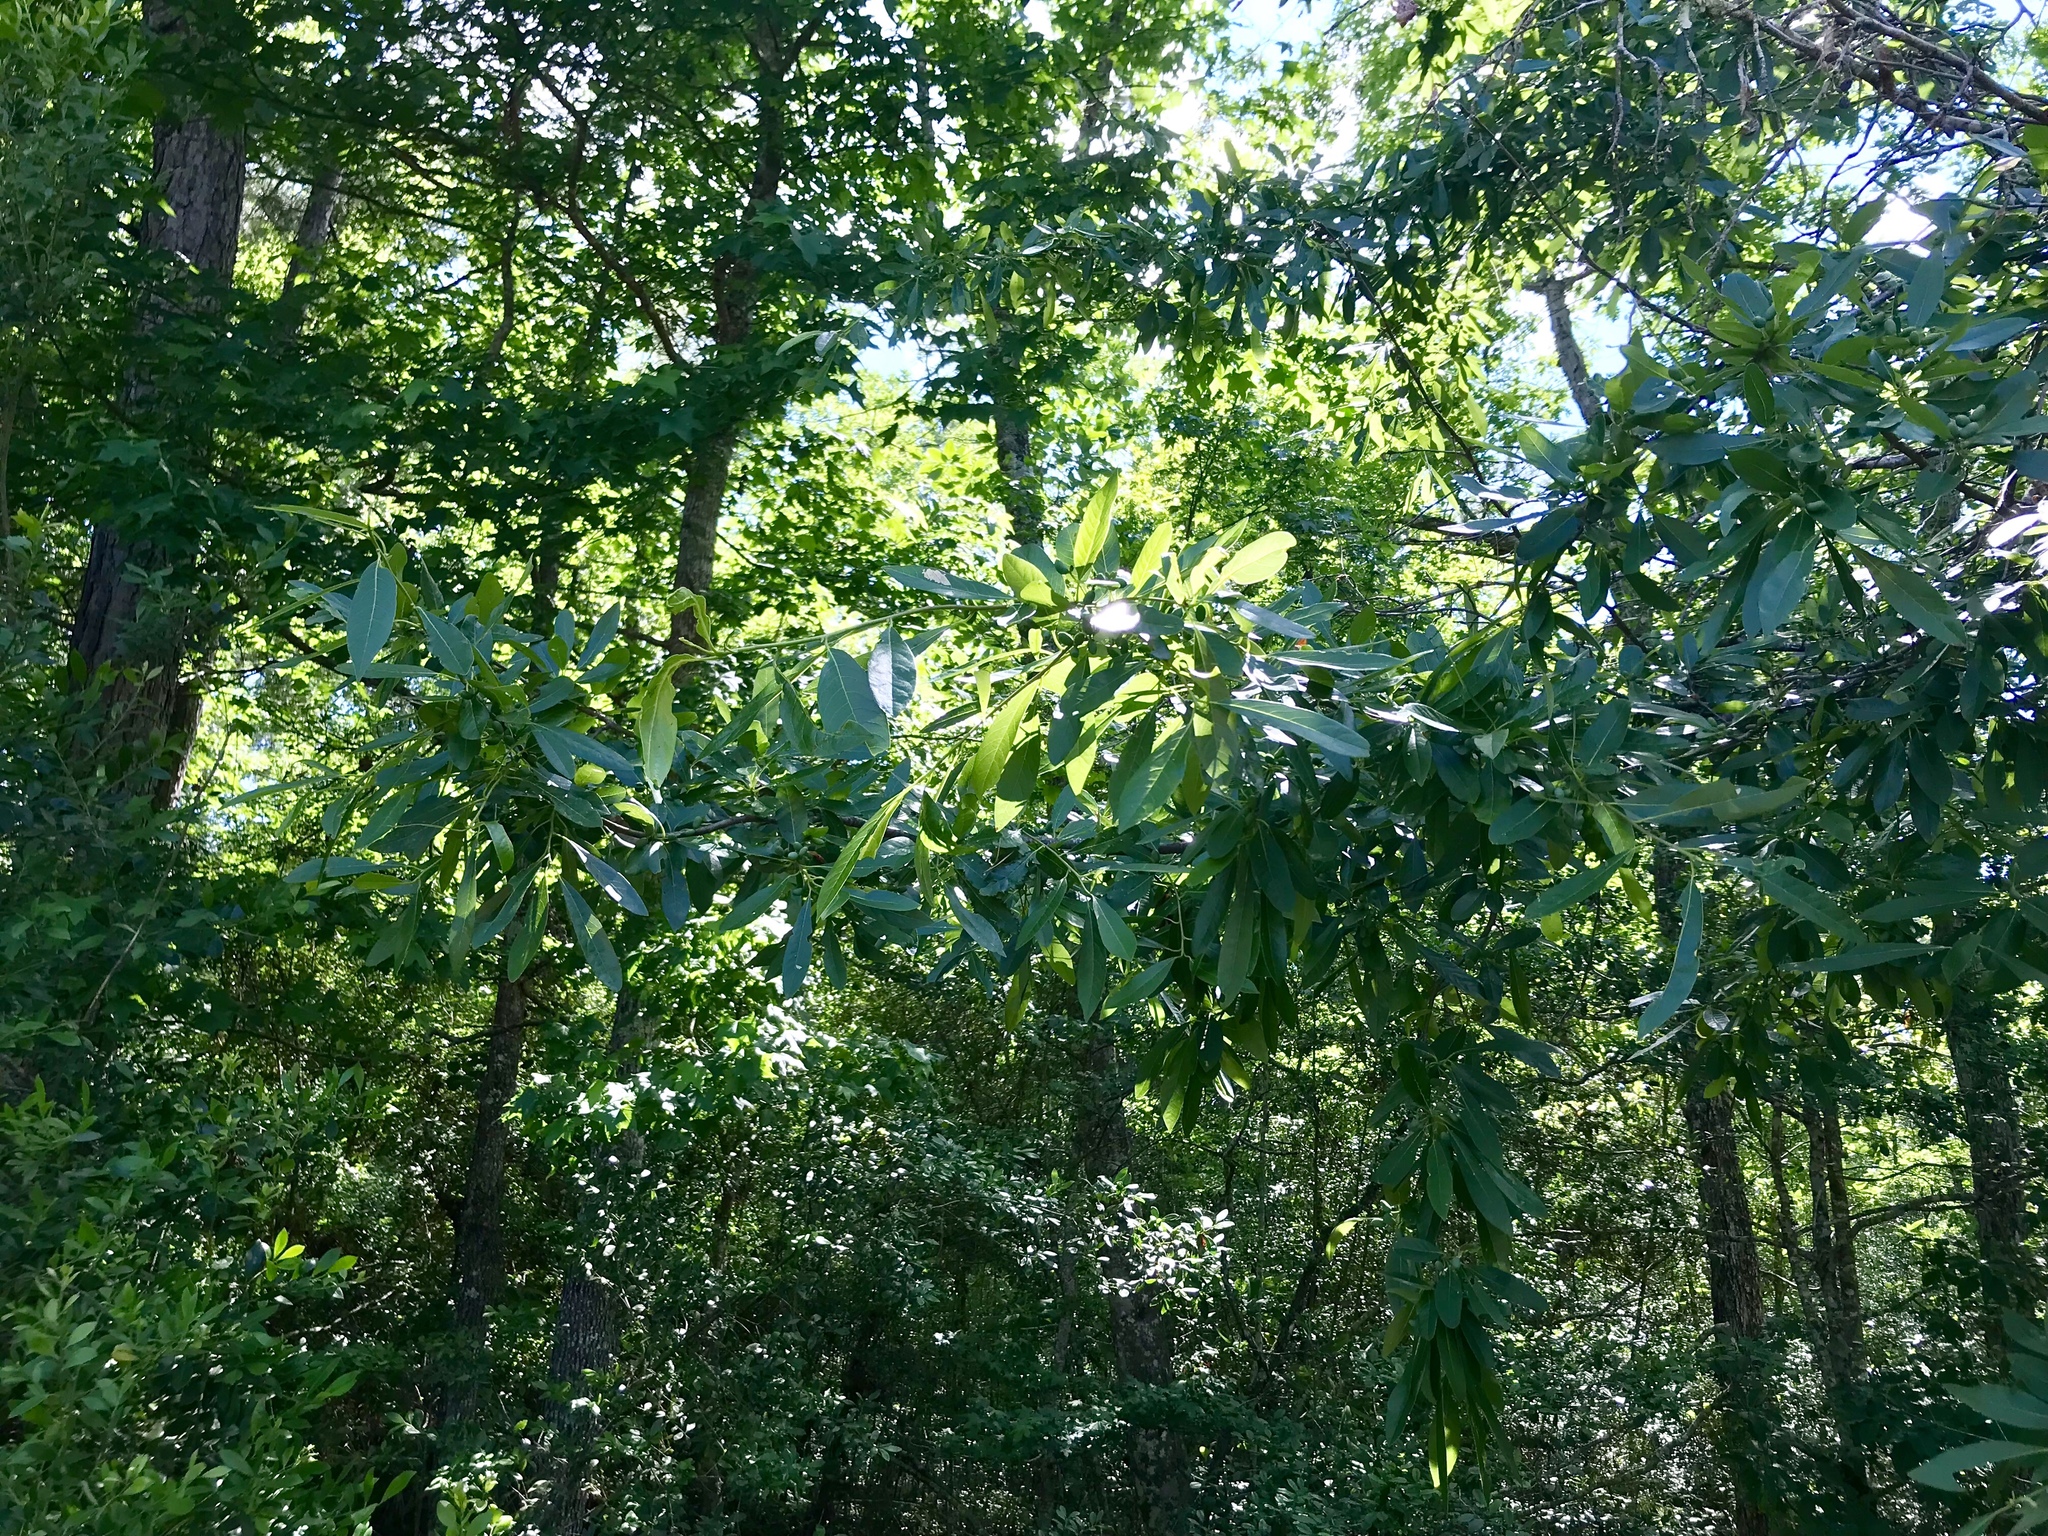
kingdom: Plantae
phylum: Tracheophyta
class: Magnoliopsida
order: Cornales
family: Nyssaceae
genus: Nyssa
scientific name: Nyssa biflora
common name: Swamp blackgum
